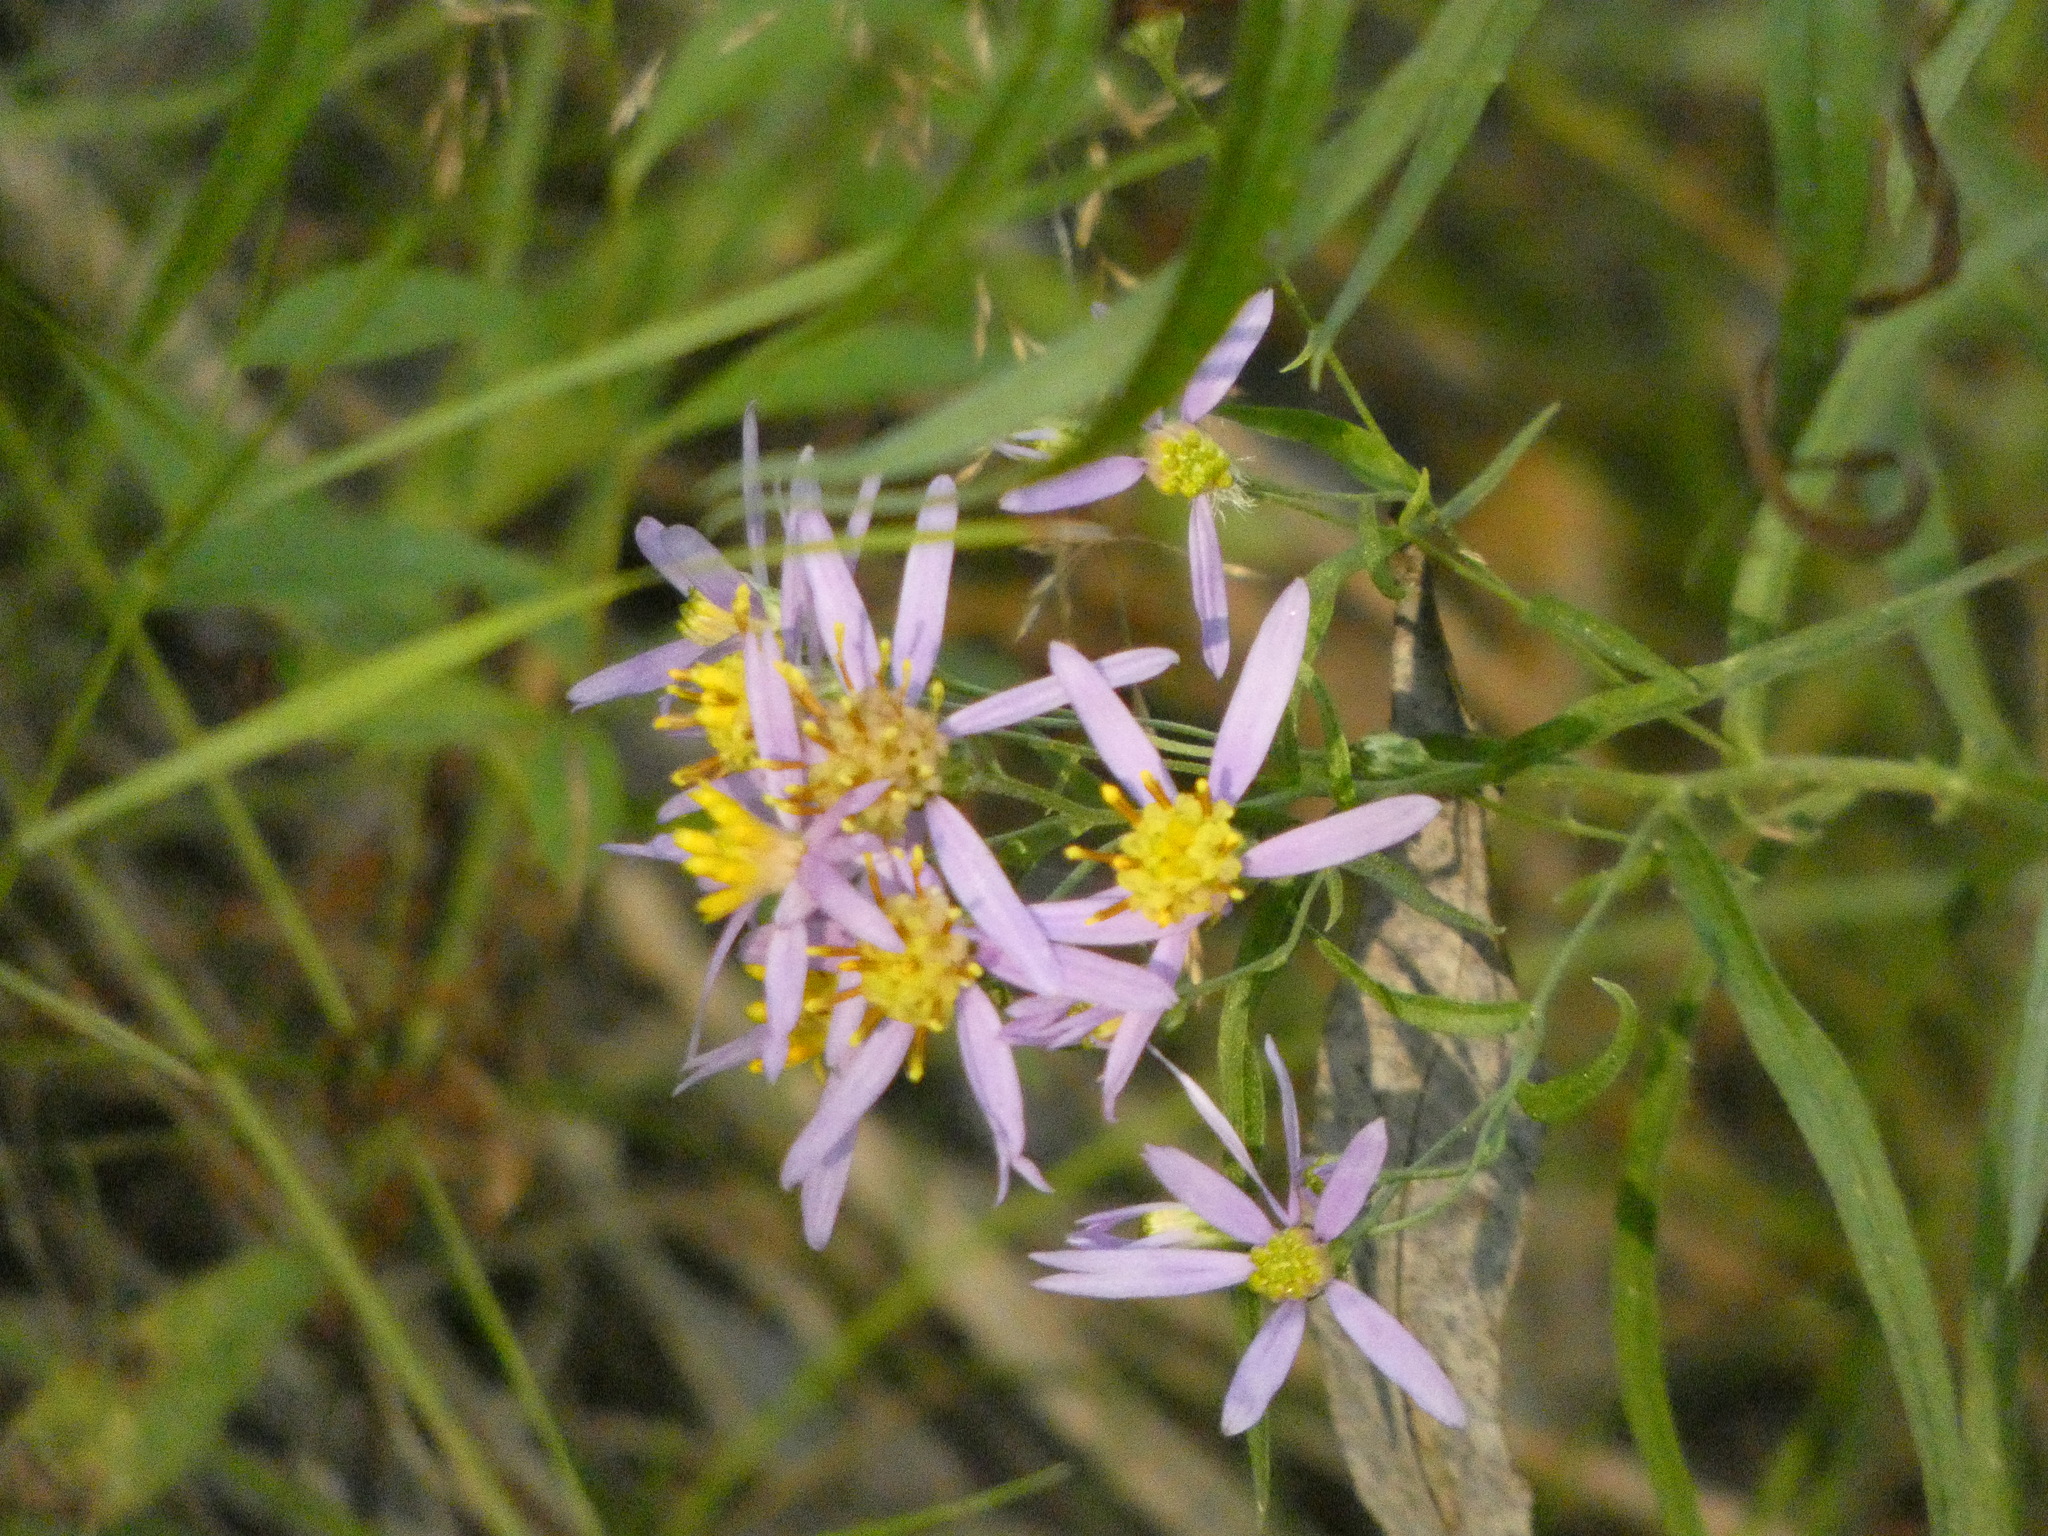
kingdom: Plantae
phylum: Tracheophyta
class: Magnoliopsida
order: Asterales
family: Asteraceae
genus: Galatella
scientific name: Galatella sedifolia
